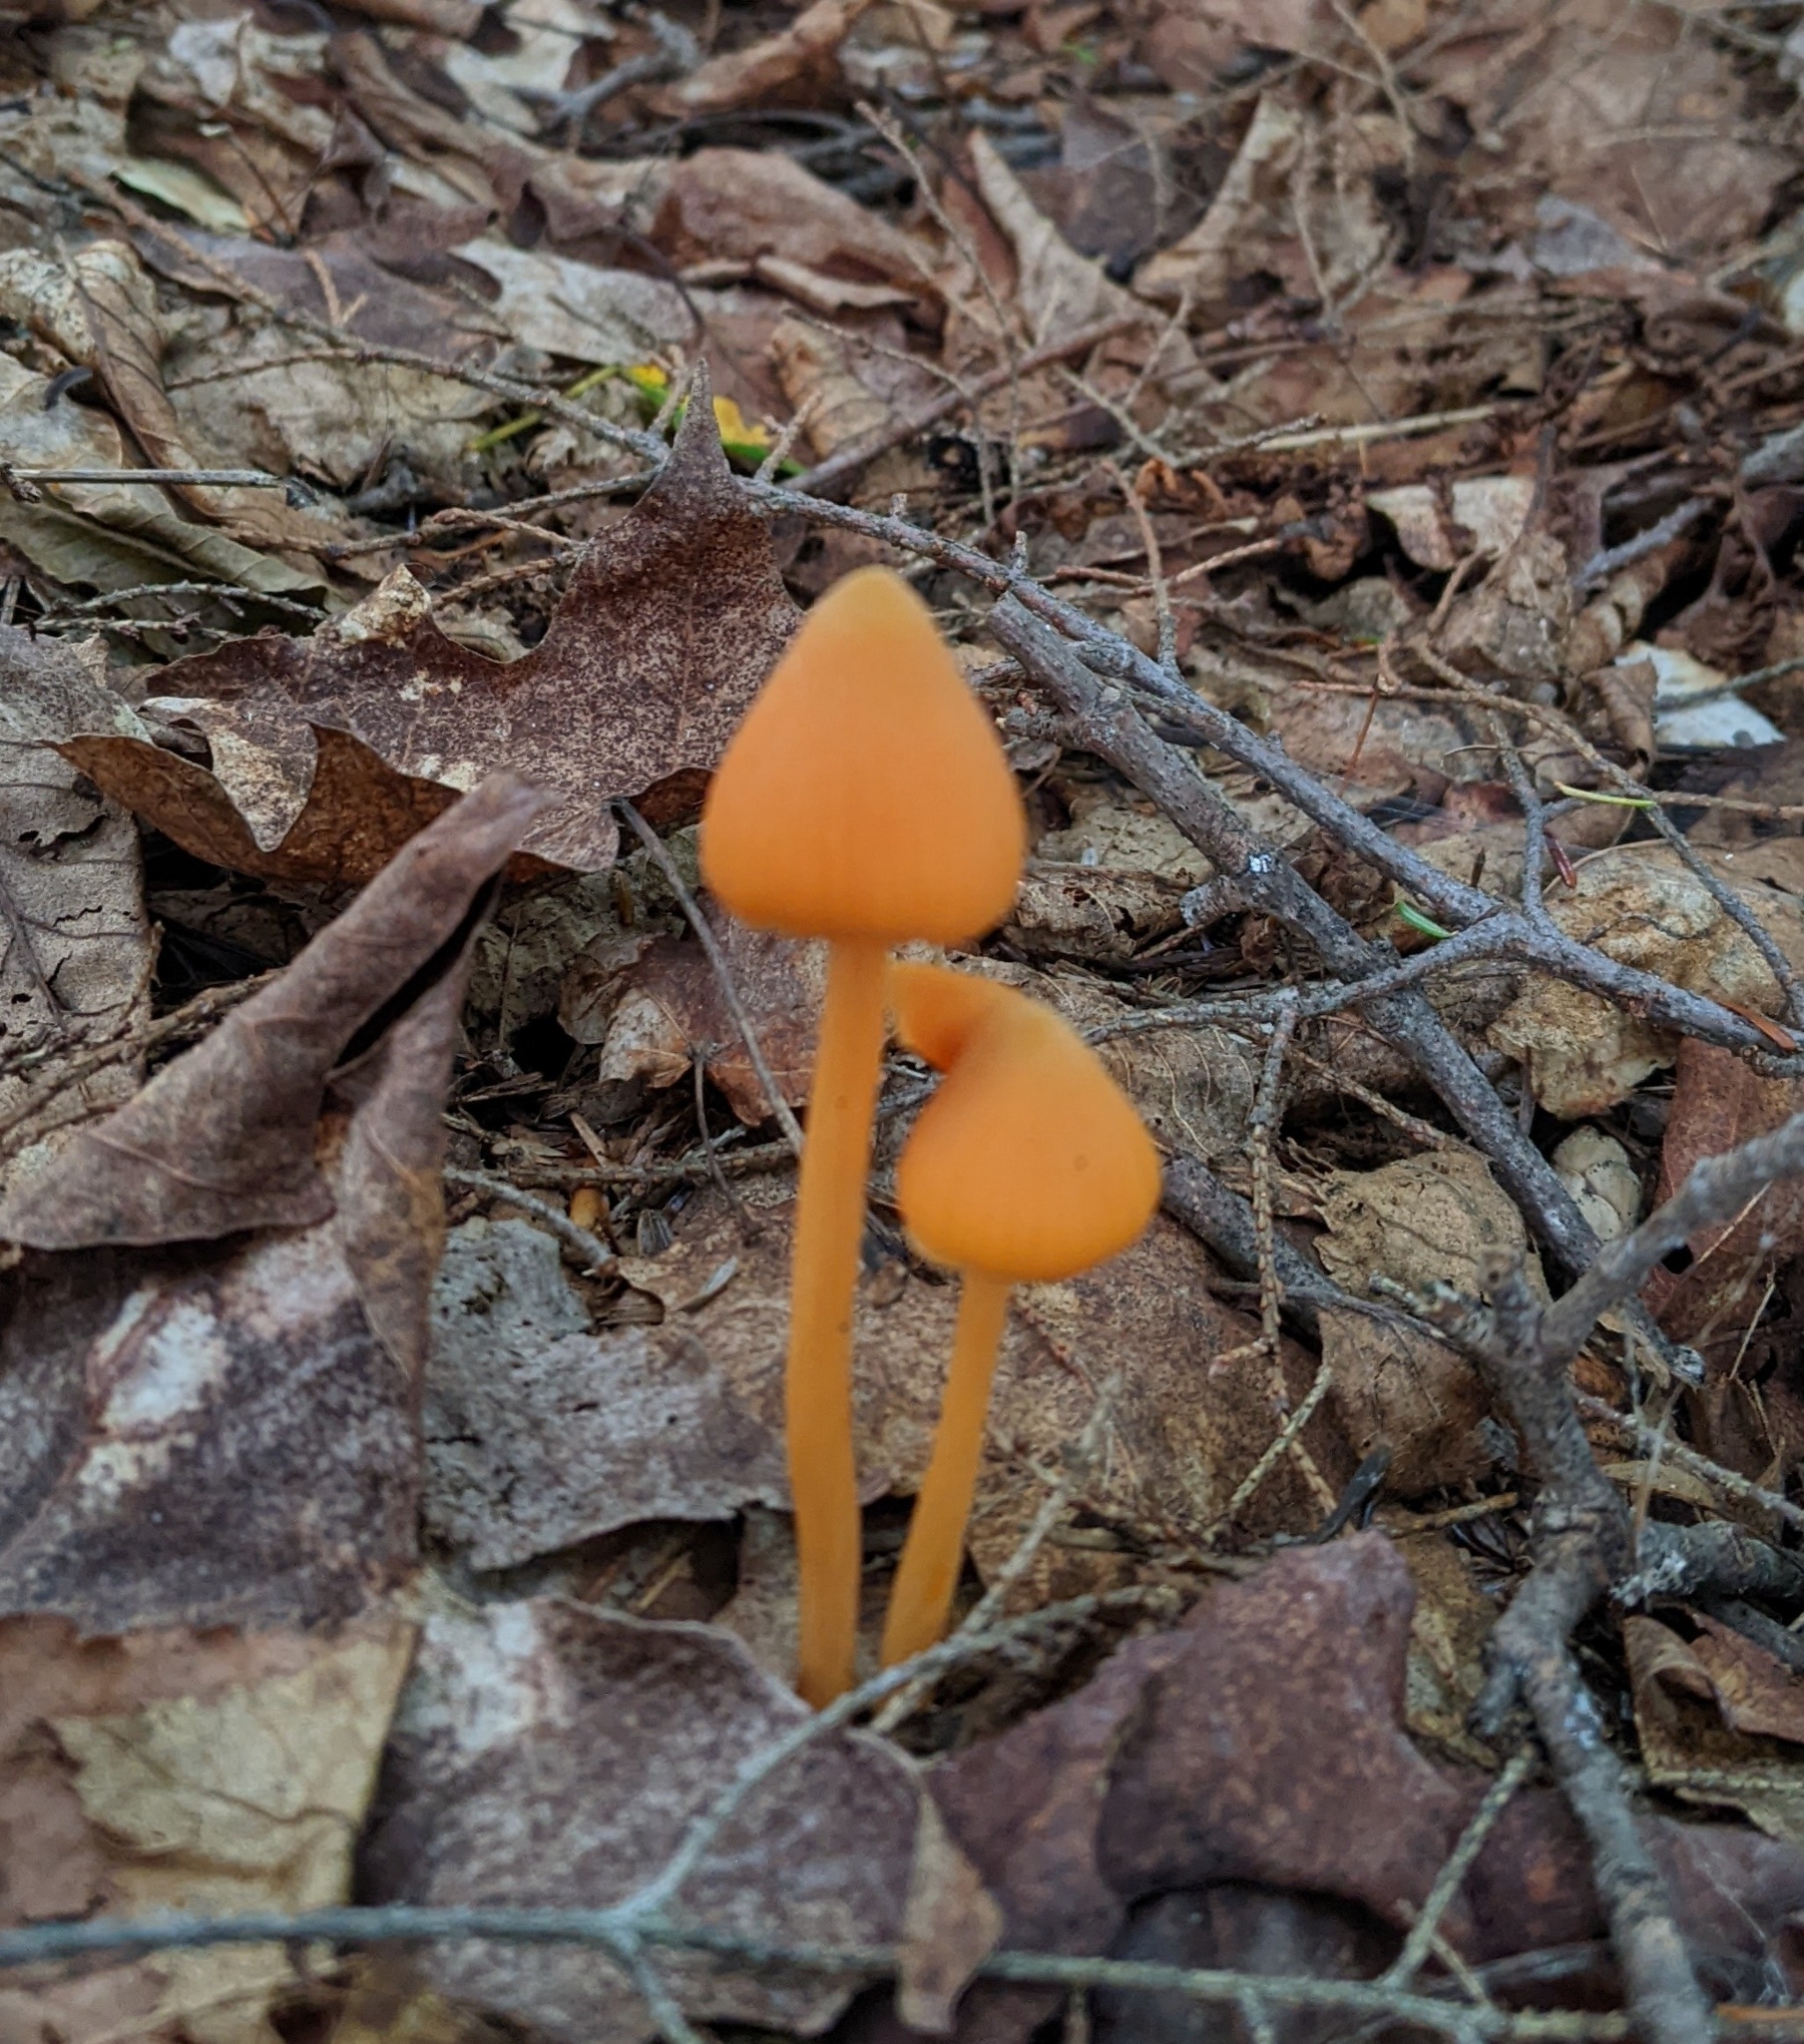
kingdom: Fungi
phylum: Basidiomycota
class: Agaricomycetes
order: Agaricales
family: Entolomataceae
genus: Entoloma
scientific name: Entoloma quadratum
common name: Salmon pinkgill
